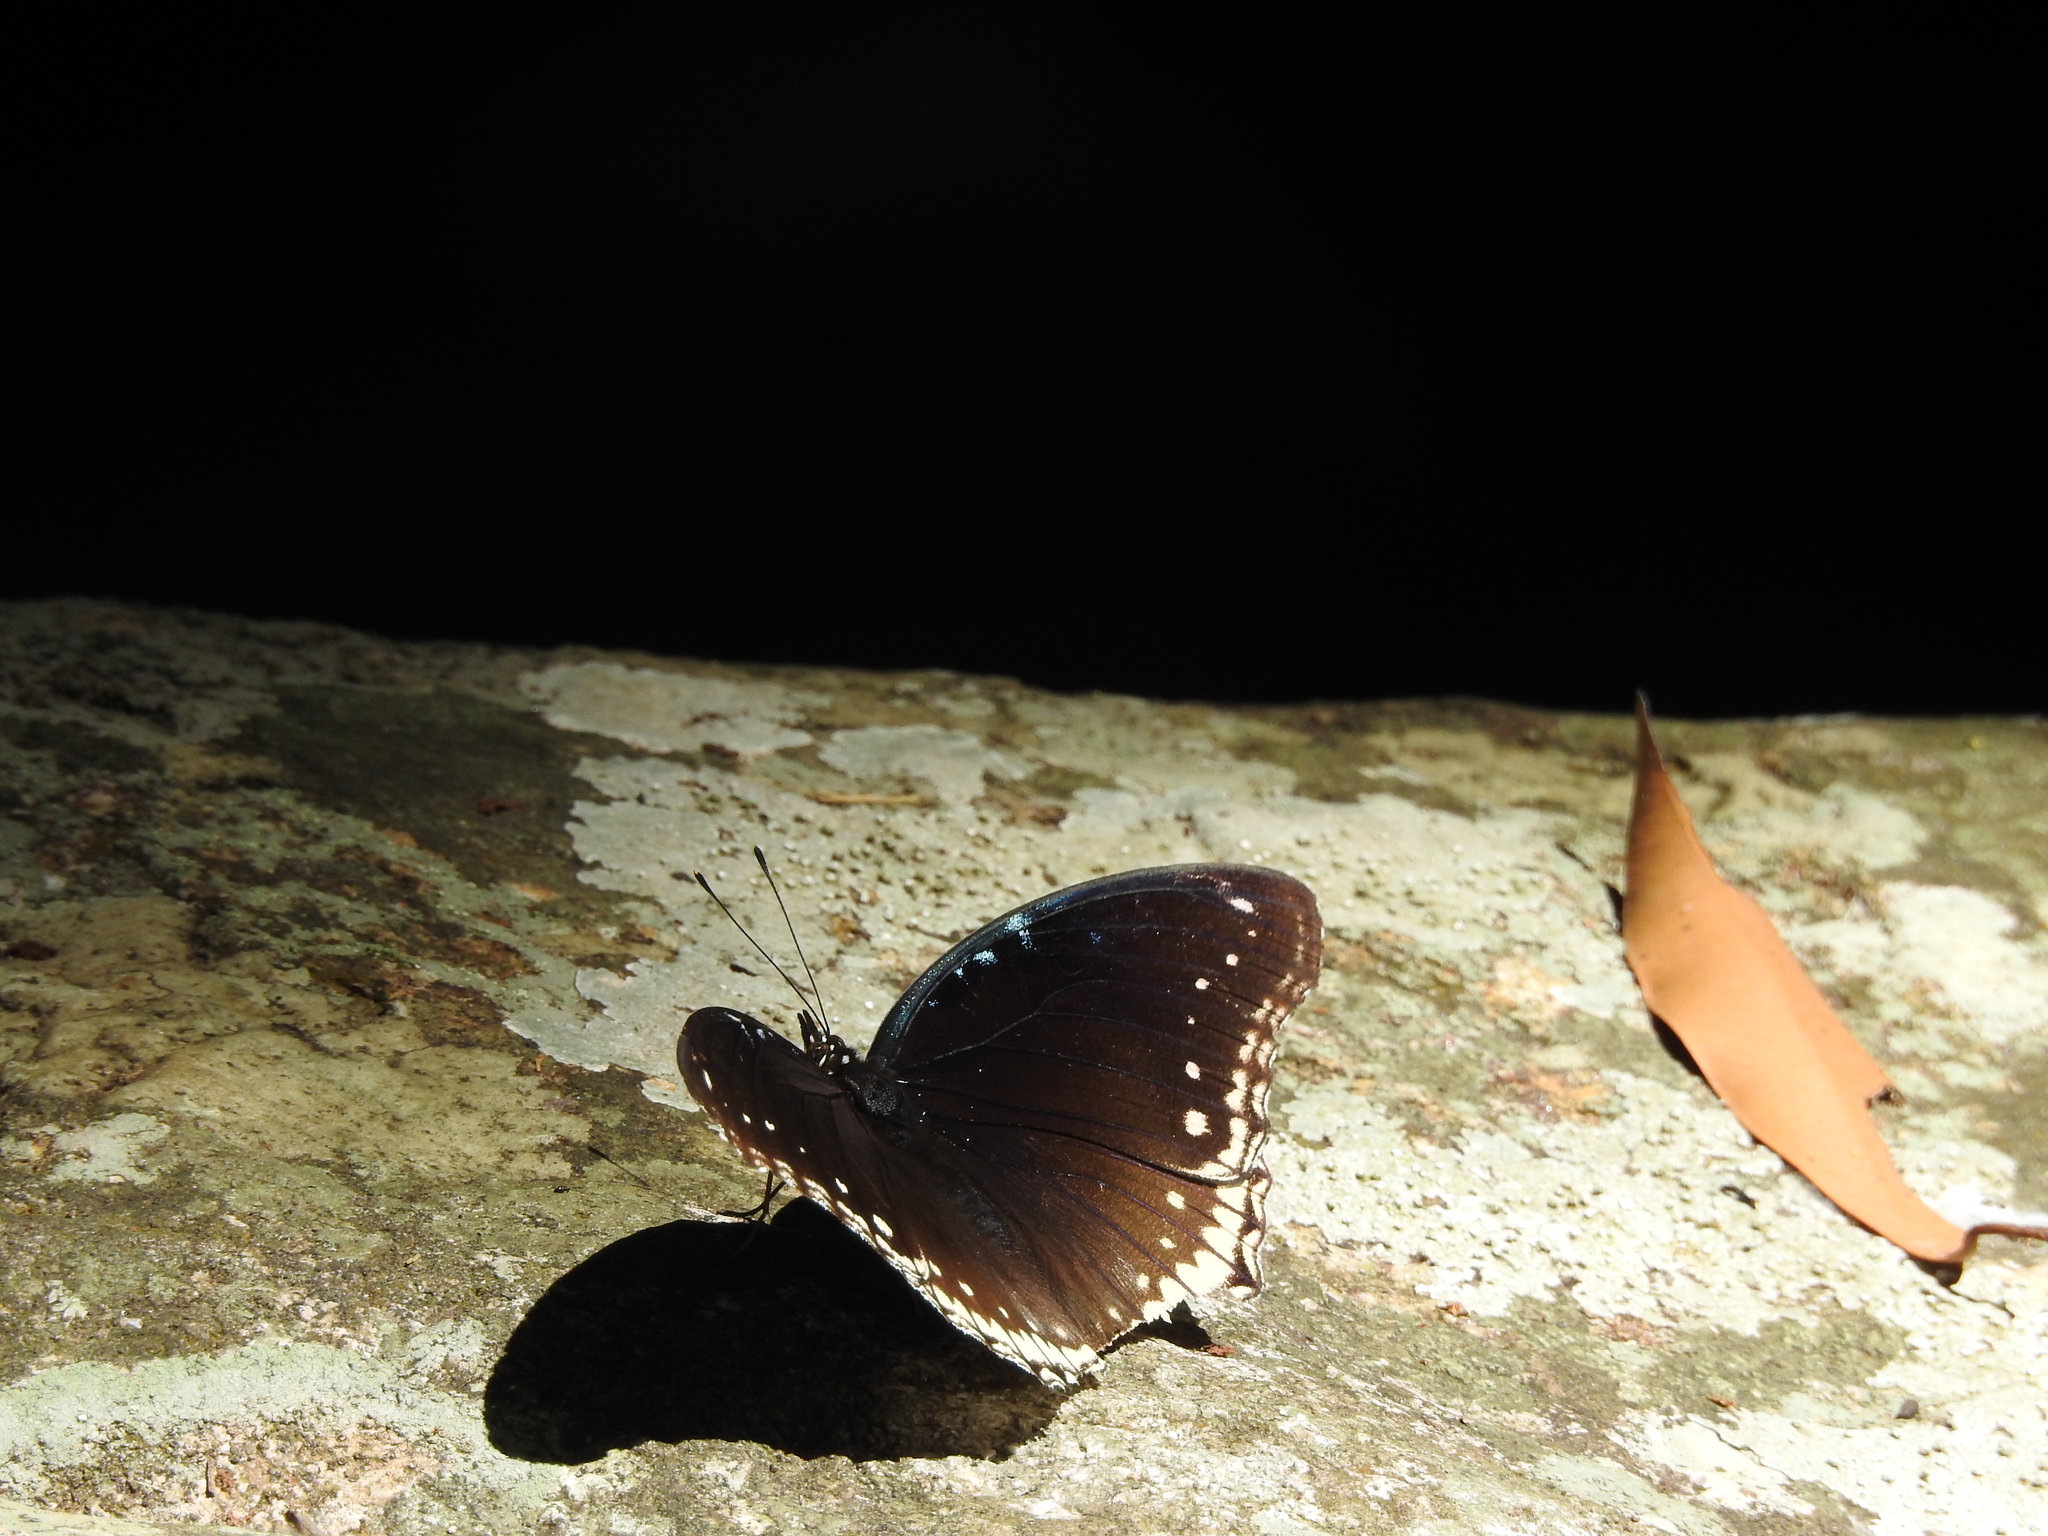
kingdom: Animalia
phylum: Arthropoda
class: Insecta
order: Lepidoptera
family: Nymphalidae
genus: Hypolimnas
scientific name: Hypolimnas bolina
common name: Great eggfly
